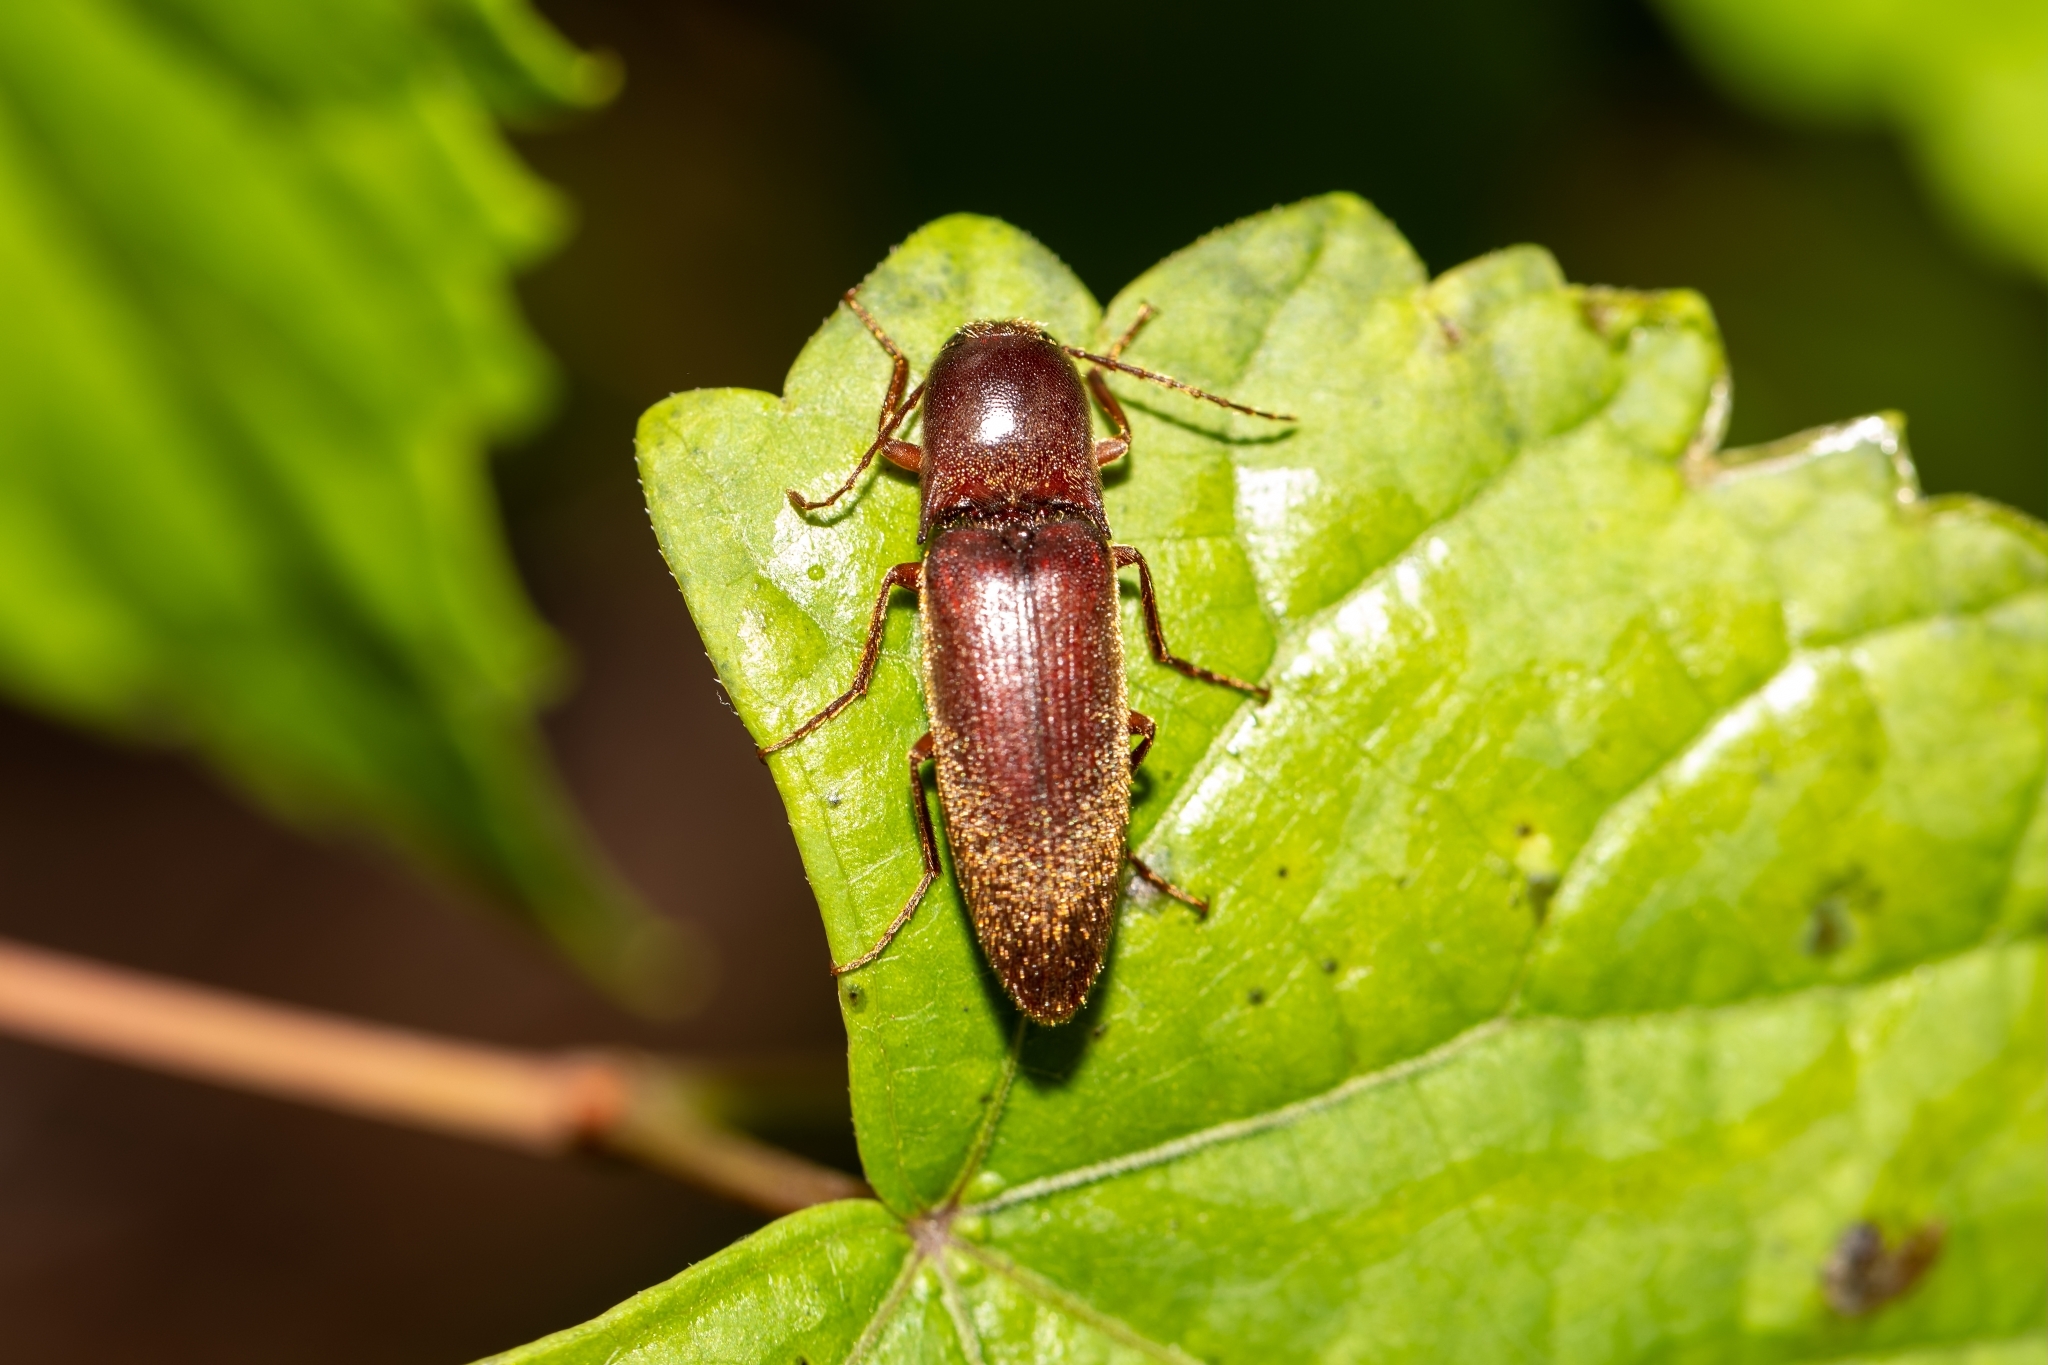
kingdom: Animalia
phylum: Arthropoda
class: Insecta
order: Coleoptera
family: Elateridae
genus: Diplostethus
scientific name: Diplostethus
